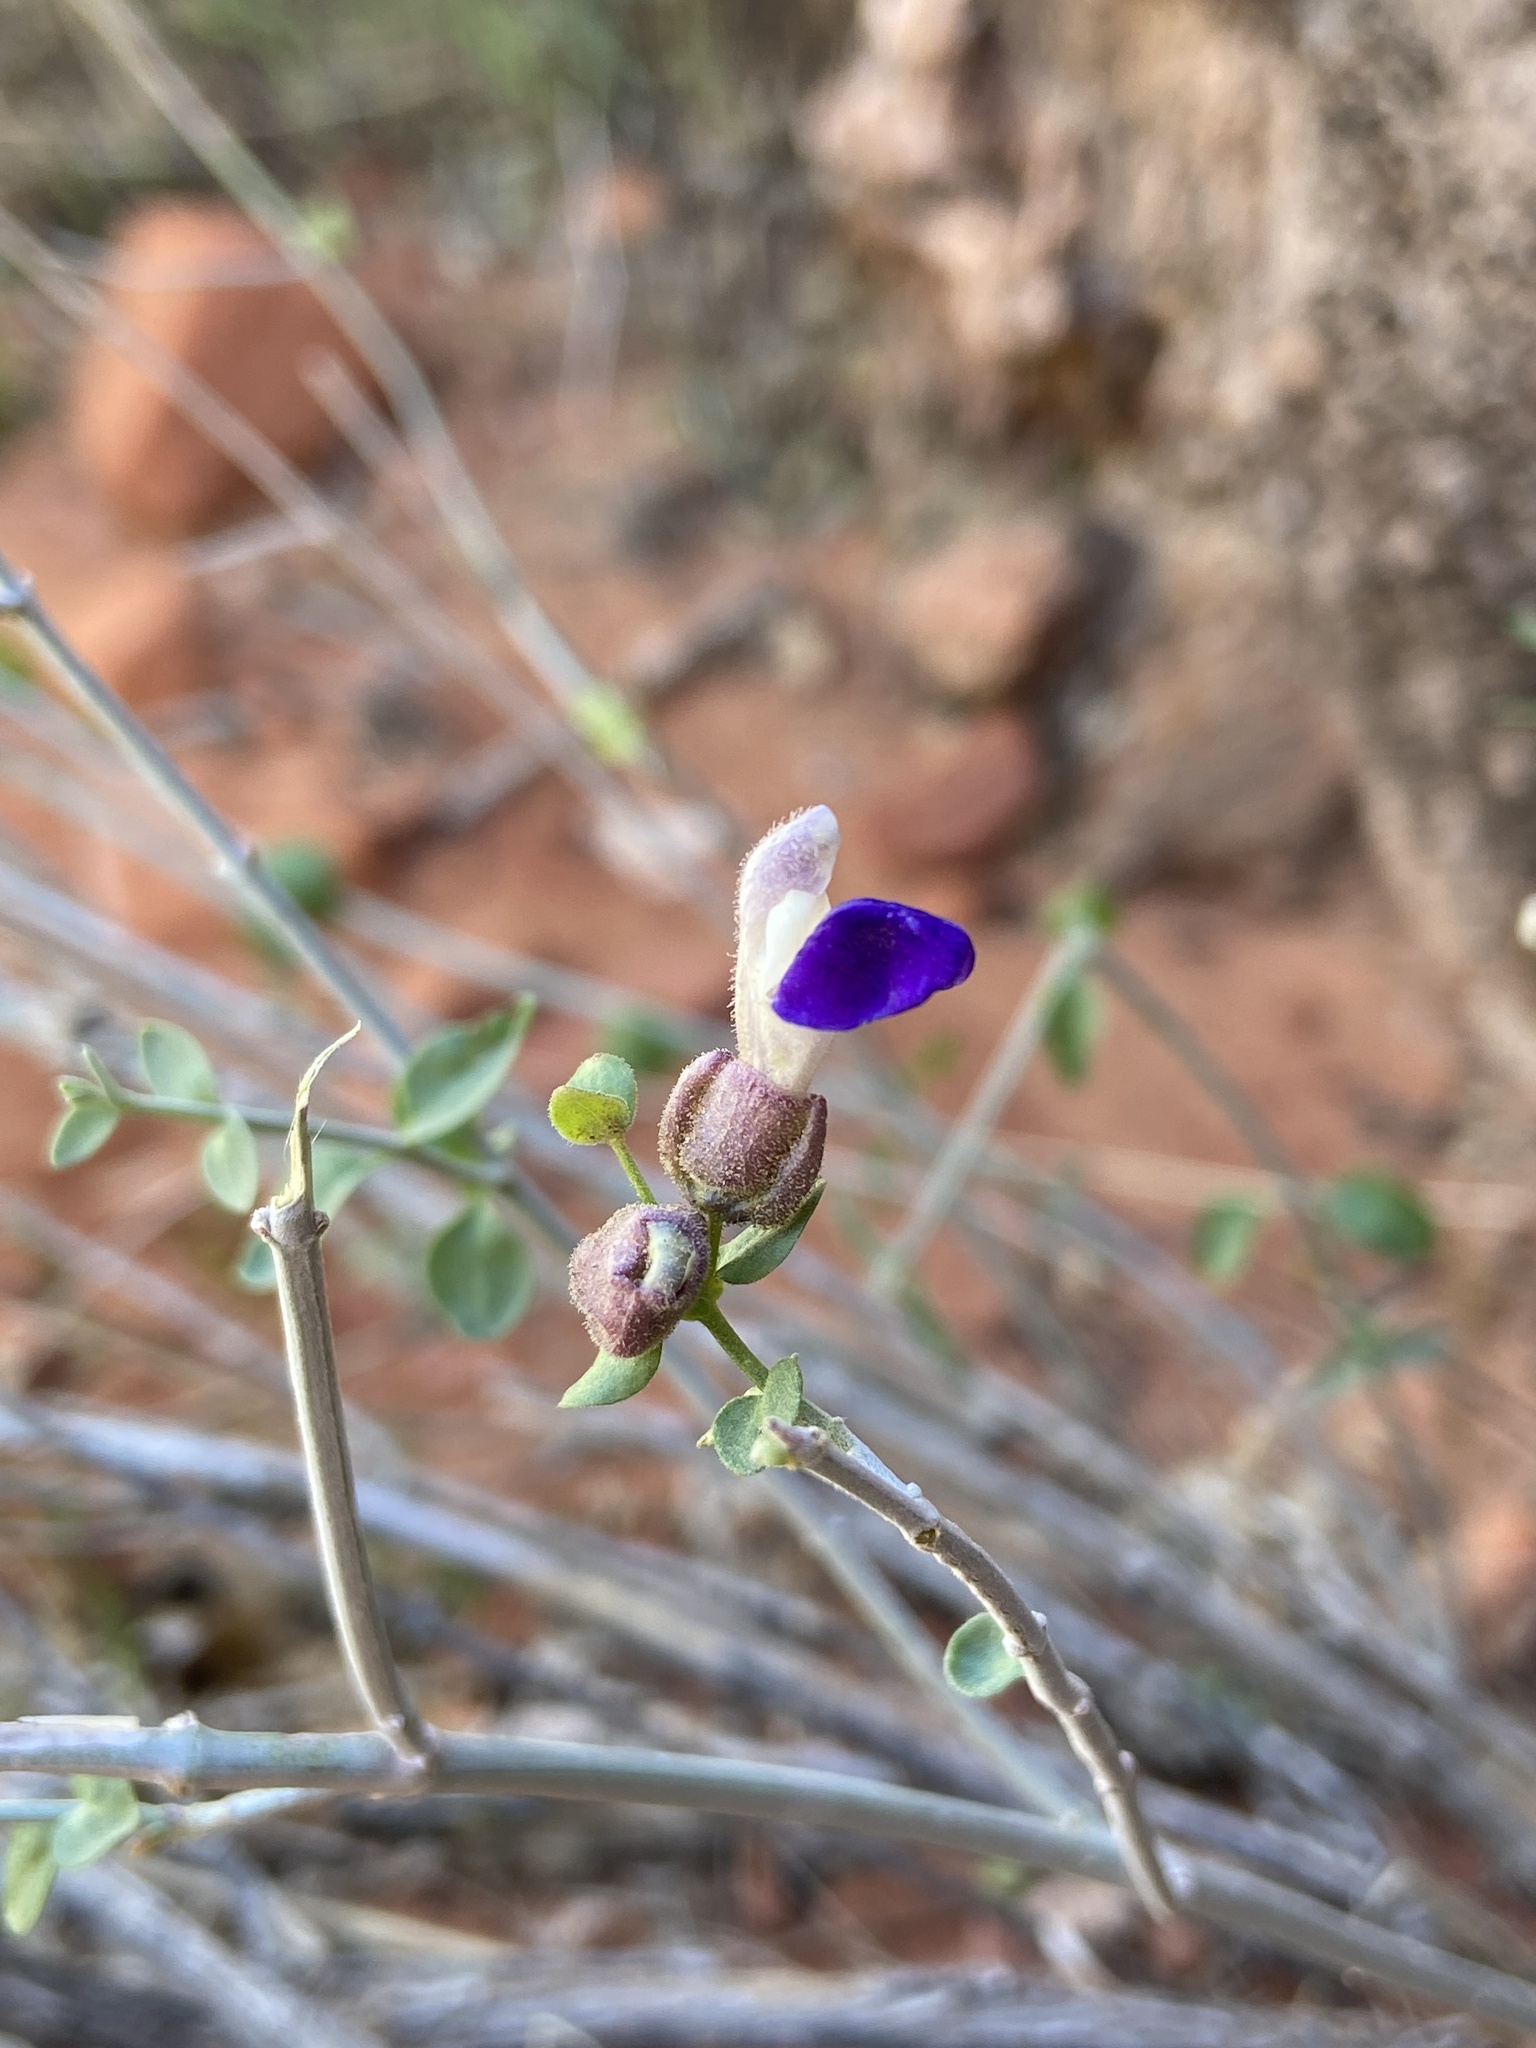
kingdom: Plantae
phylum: Tracheophyta
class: Magnoliopsida
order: Lamiales
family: Lamiaceae
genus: Scutellaria
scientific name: Scutellaria mexicana
